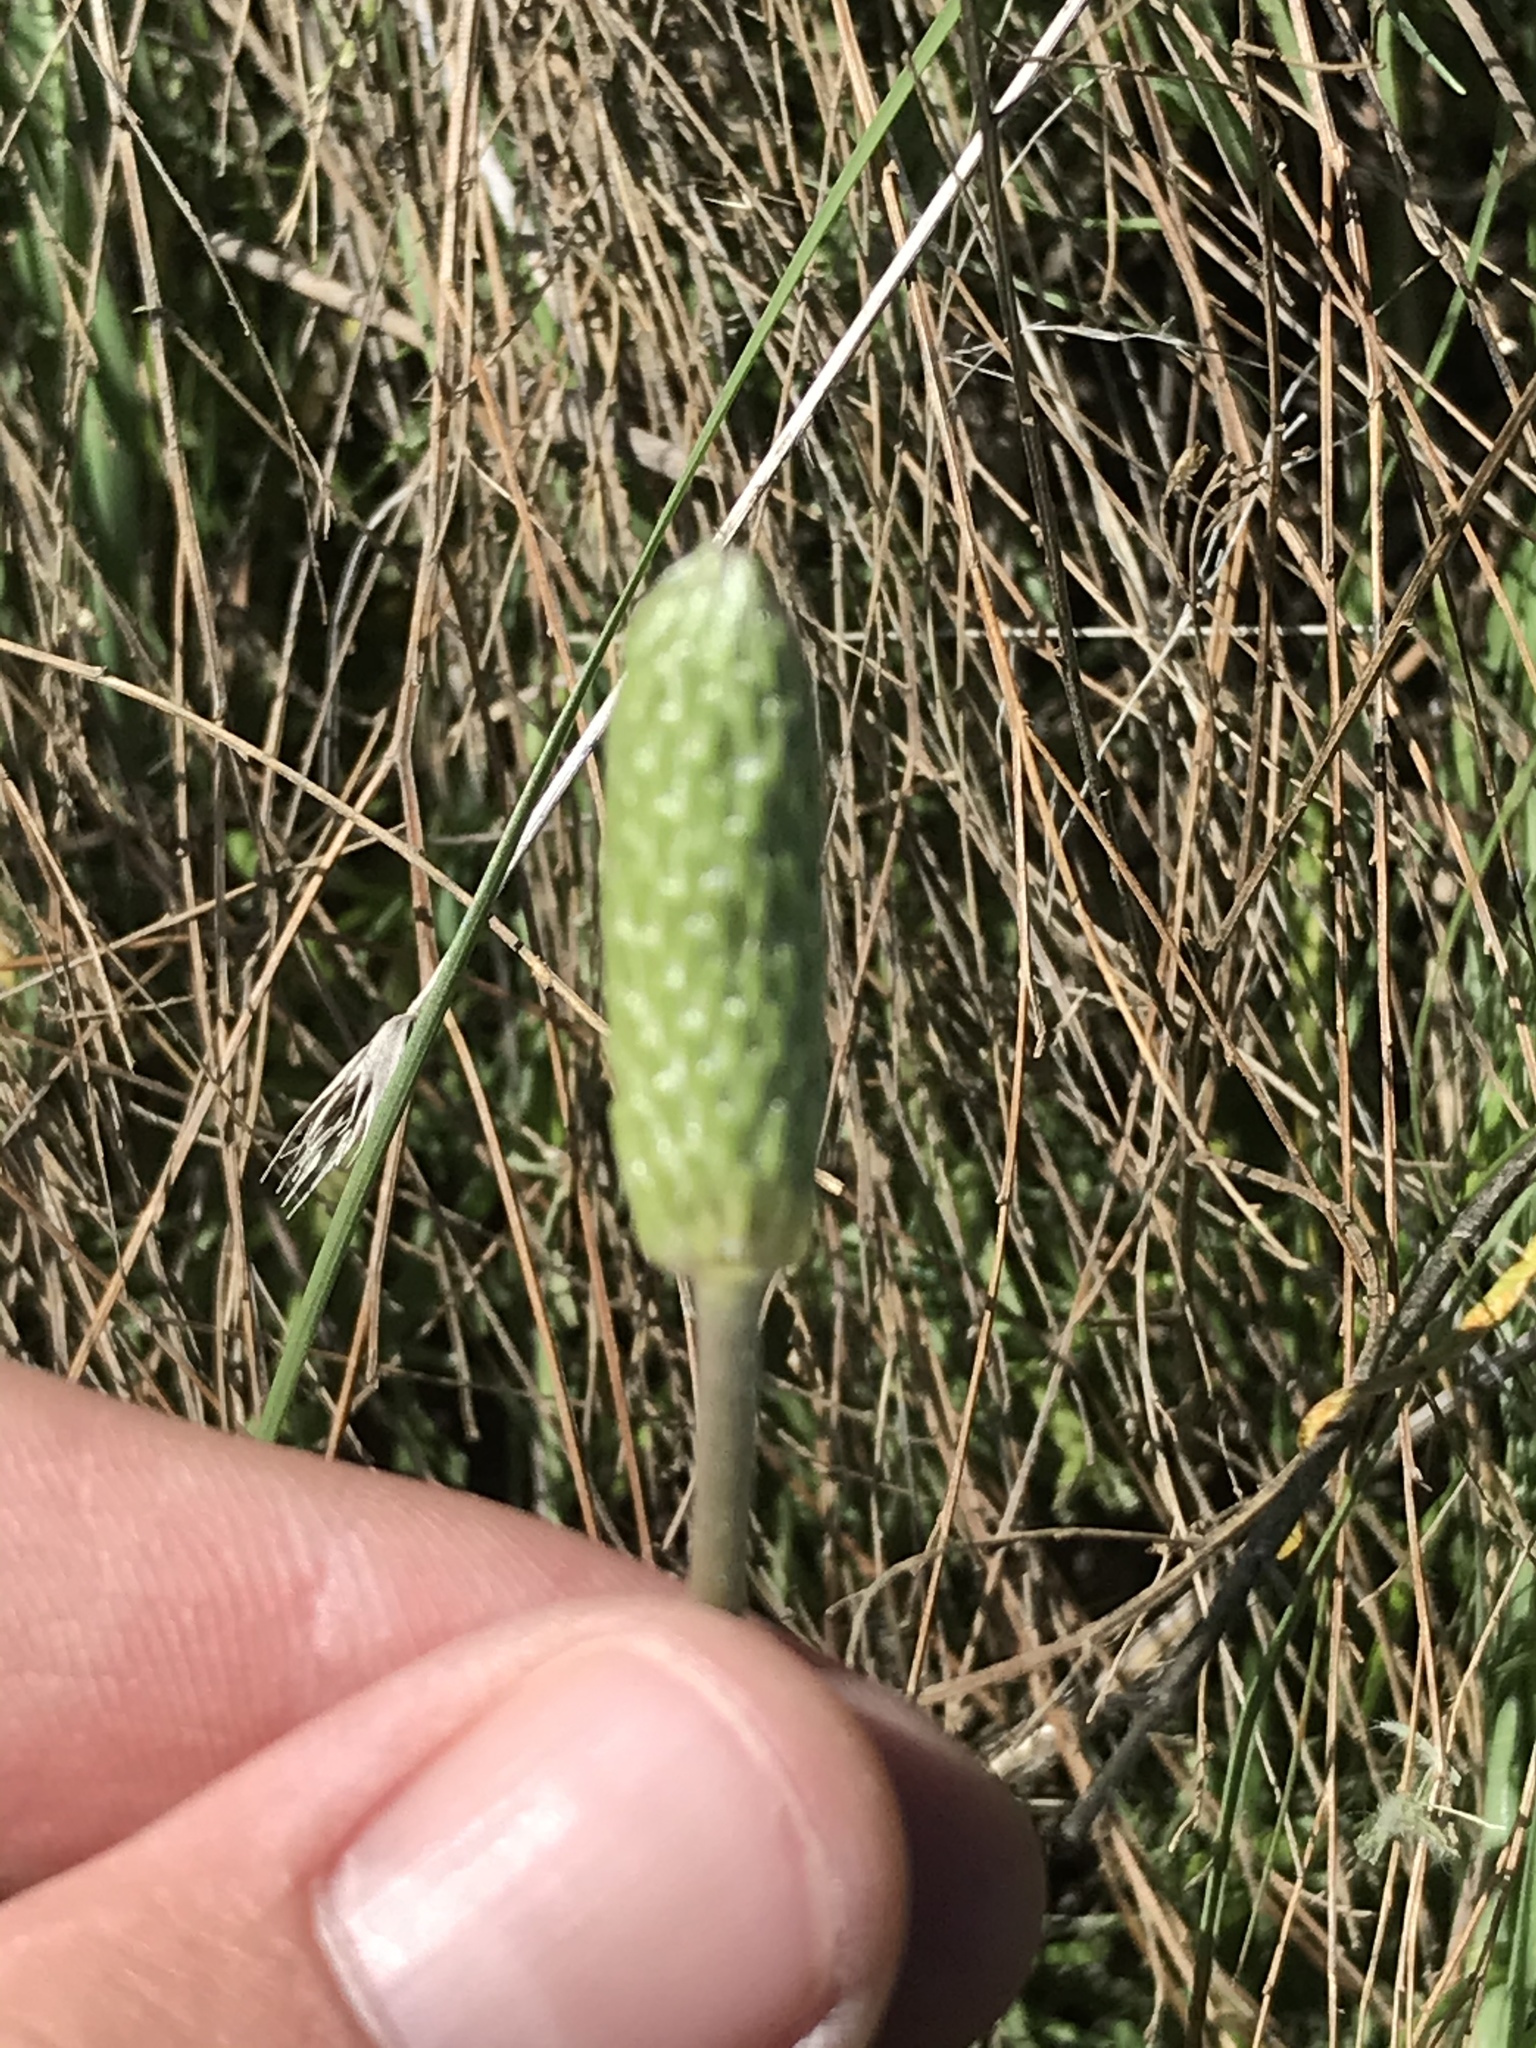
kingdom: Plantae
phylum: Tracheophyta
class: Magnoliopsida
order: Asterales
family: Asteraceae
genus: Ratibida
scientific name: Ratibida columnifera
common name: Prairie coneflower
